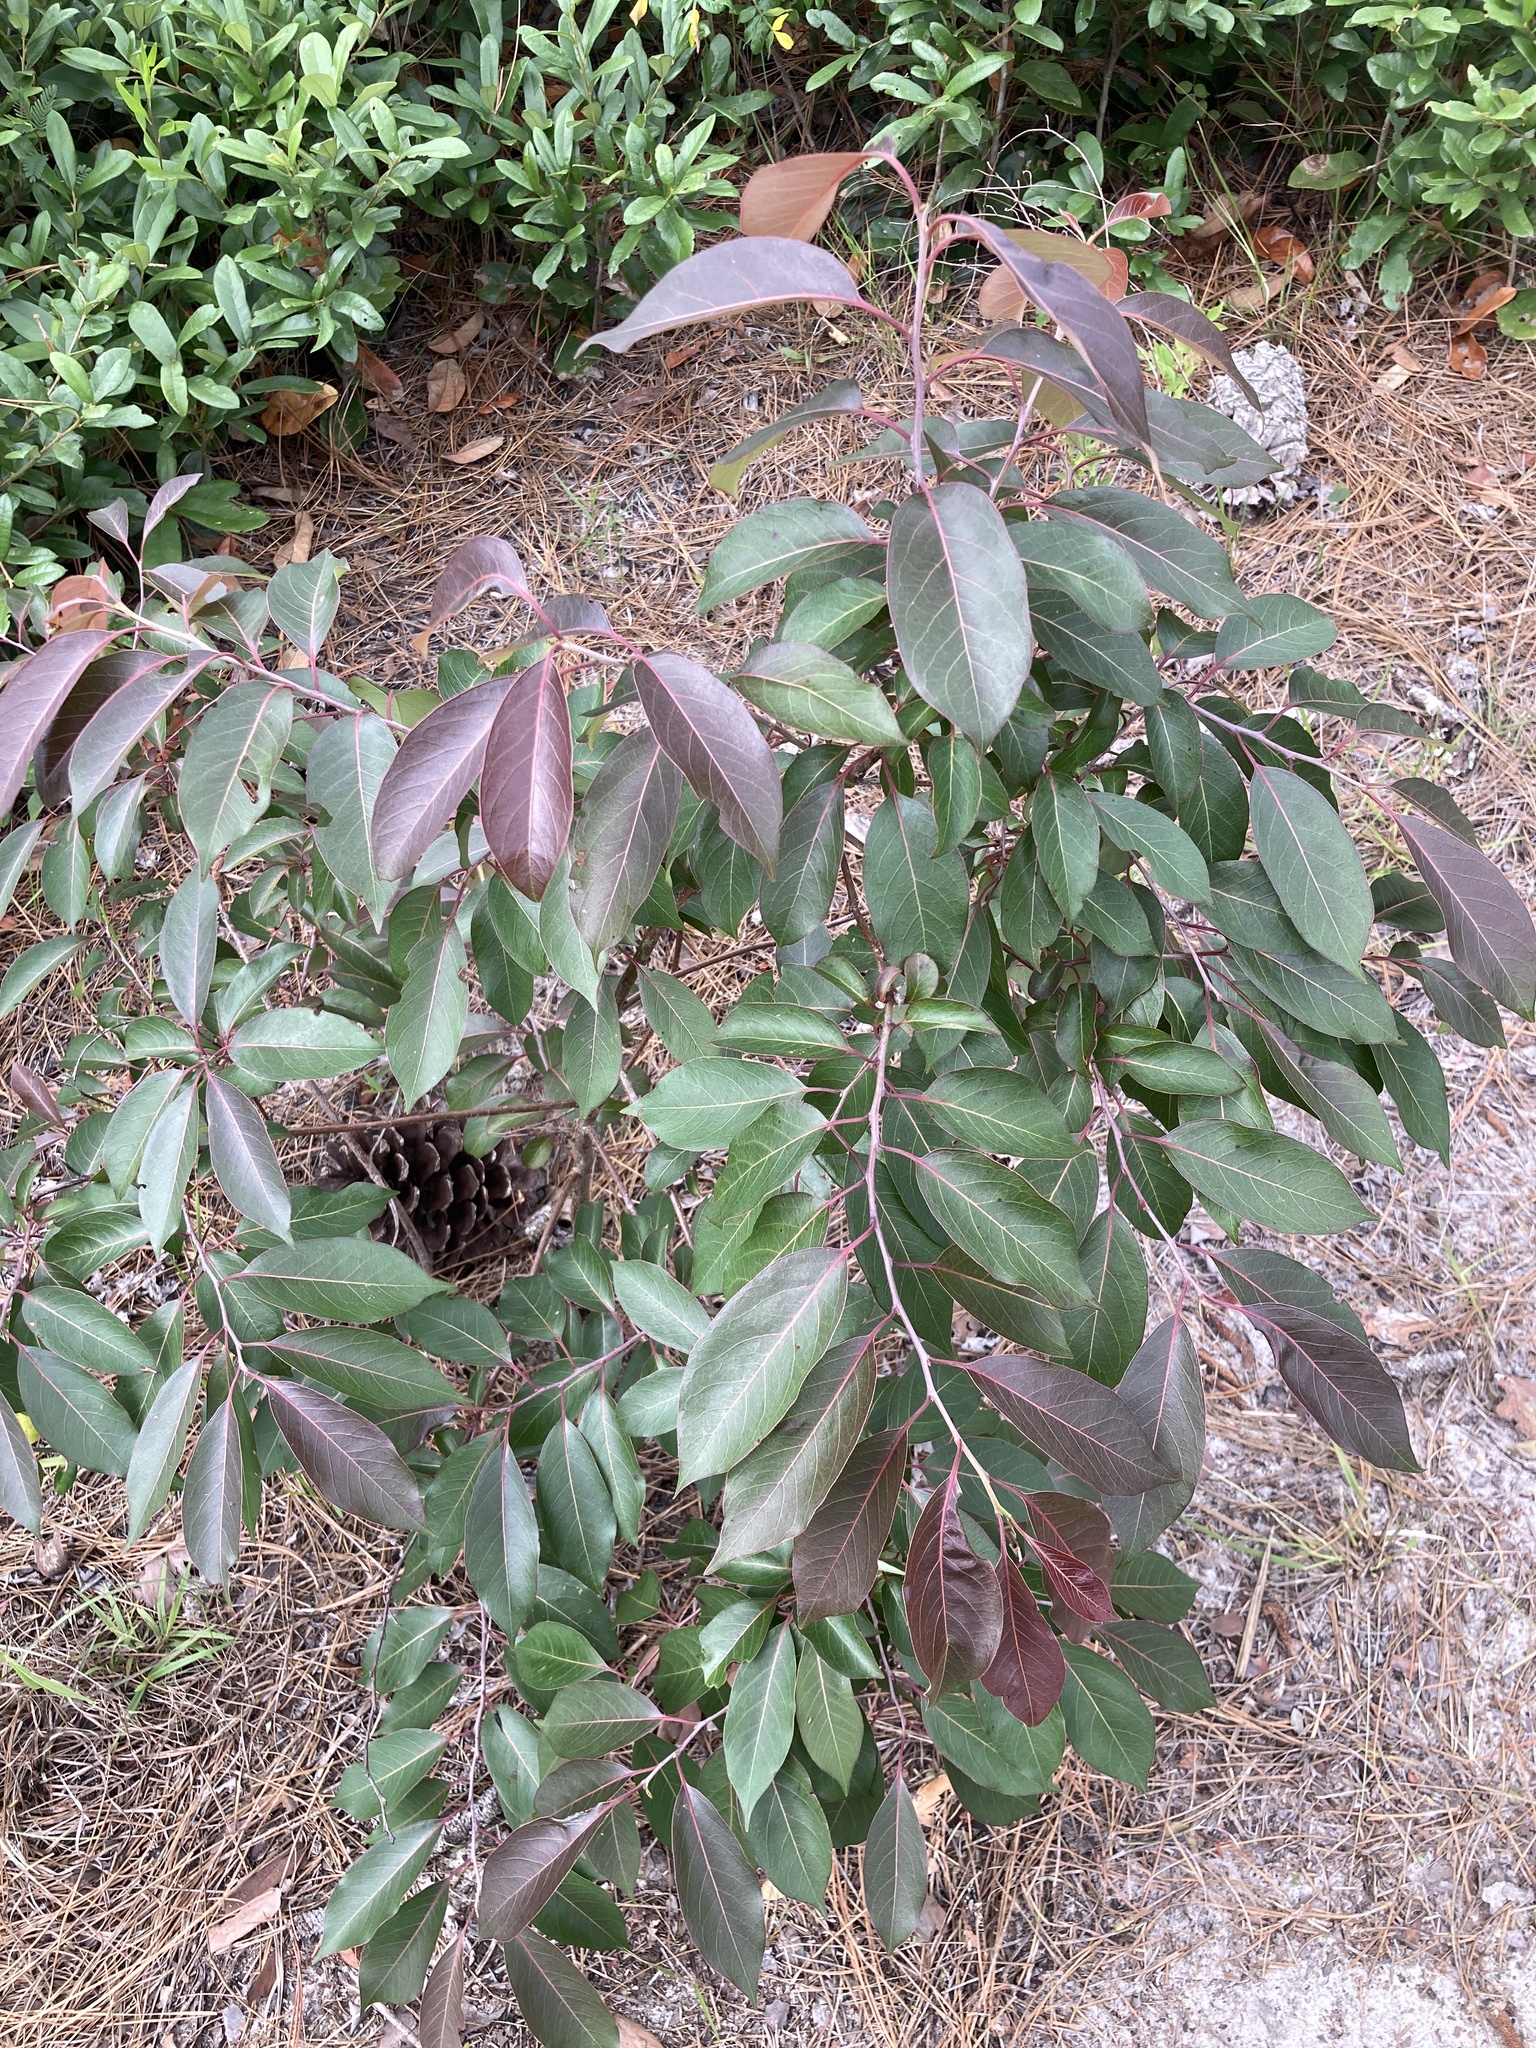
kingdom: Plantae
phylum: Tracheophyta
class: Magnoliopsida
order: Ericales
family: Ebenaceae
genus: Diospyros
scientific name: Diospyros virginiana
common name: Persimmon
